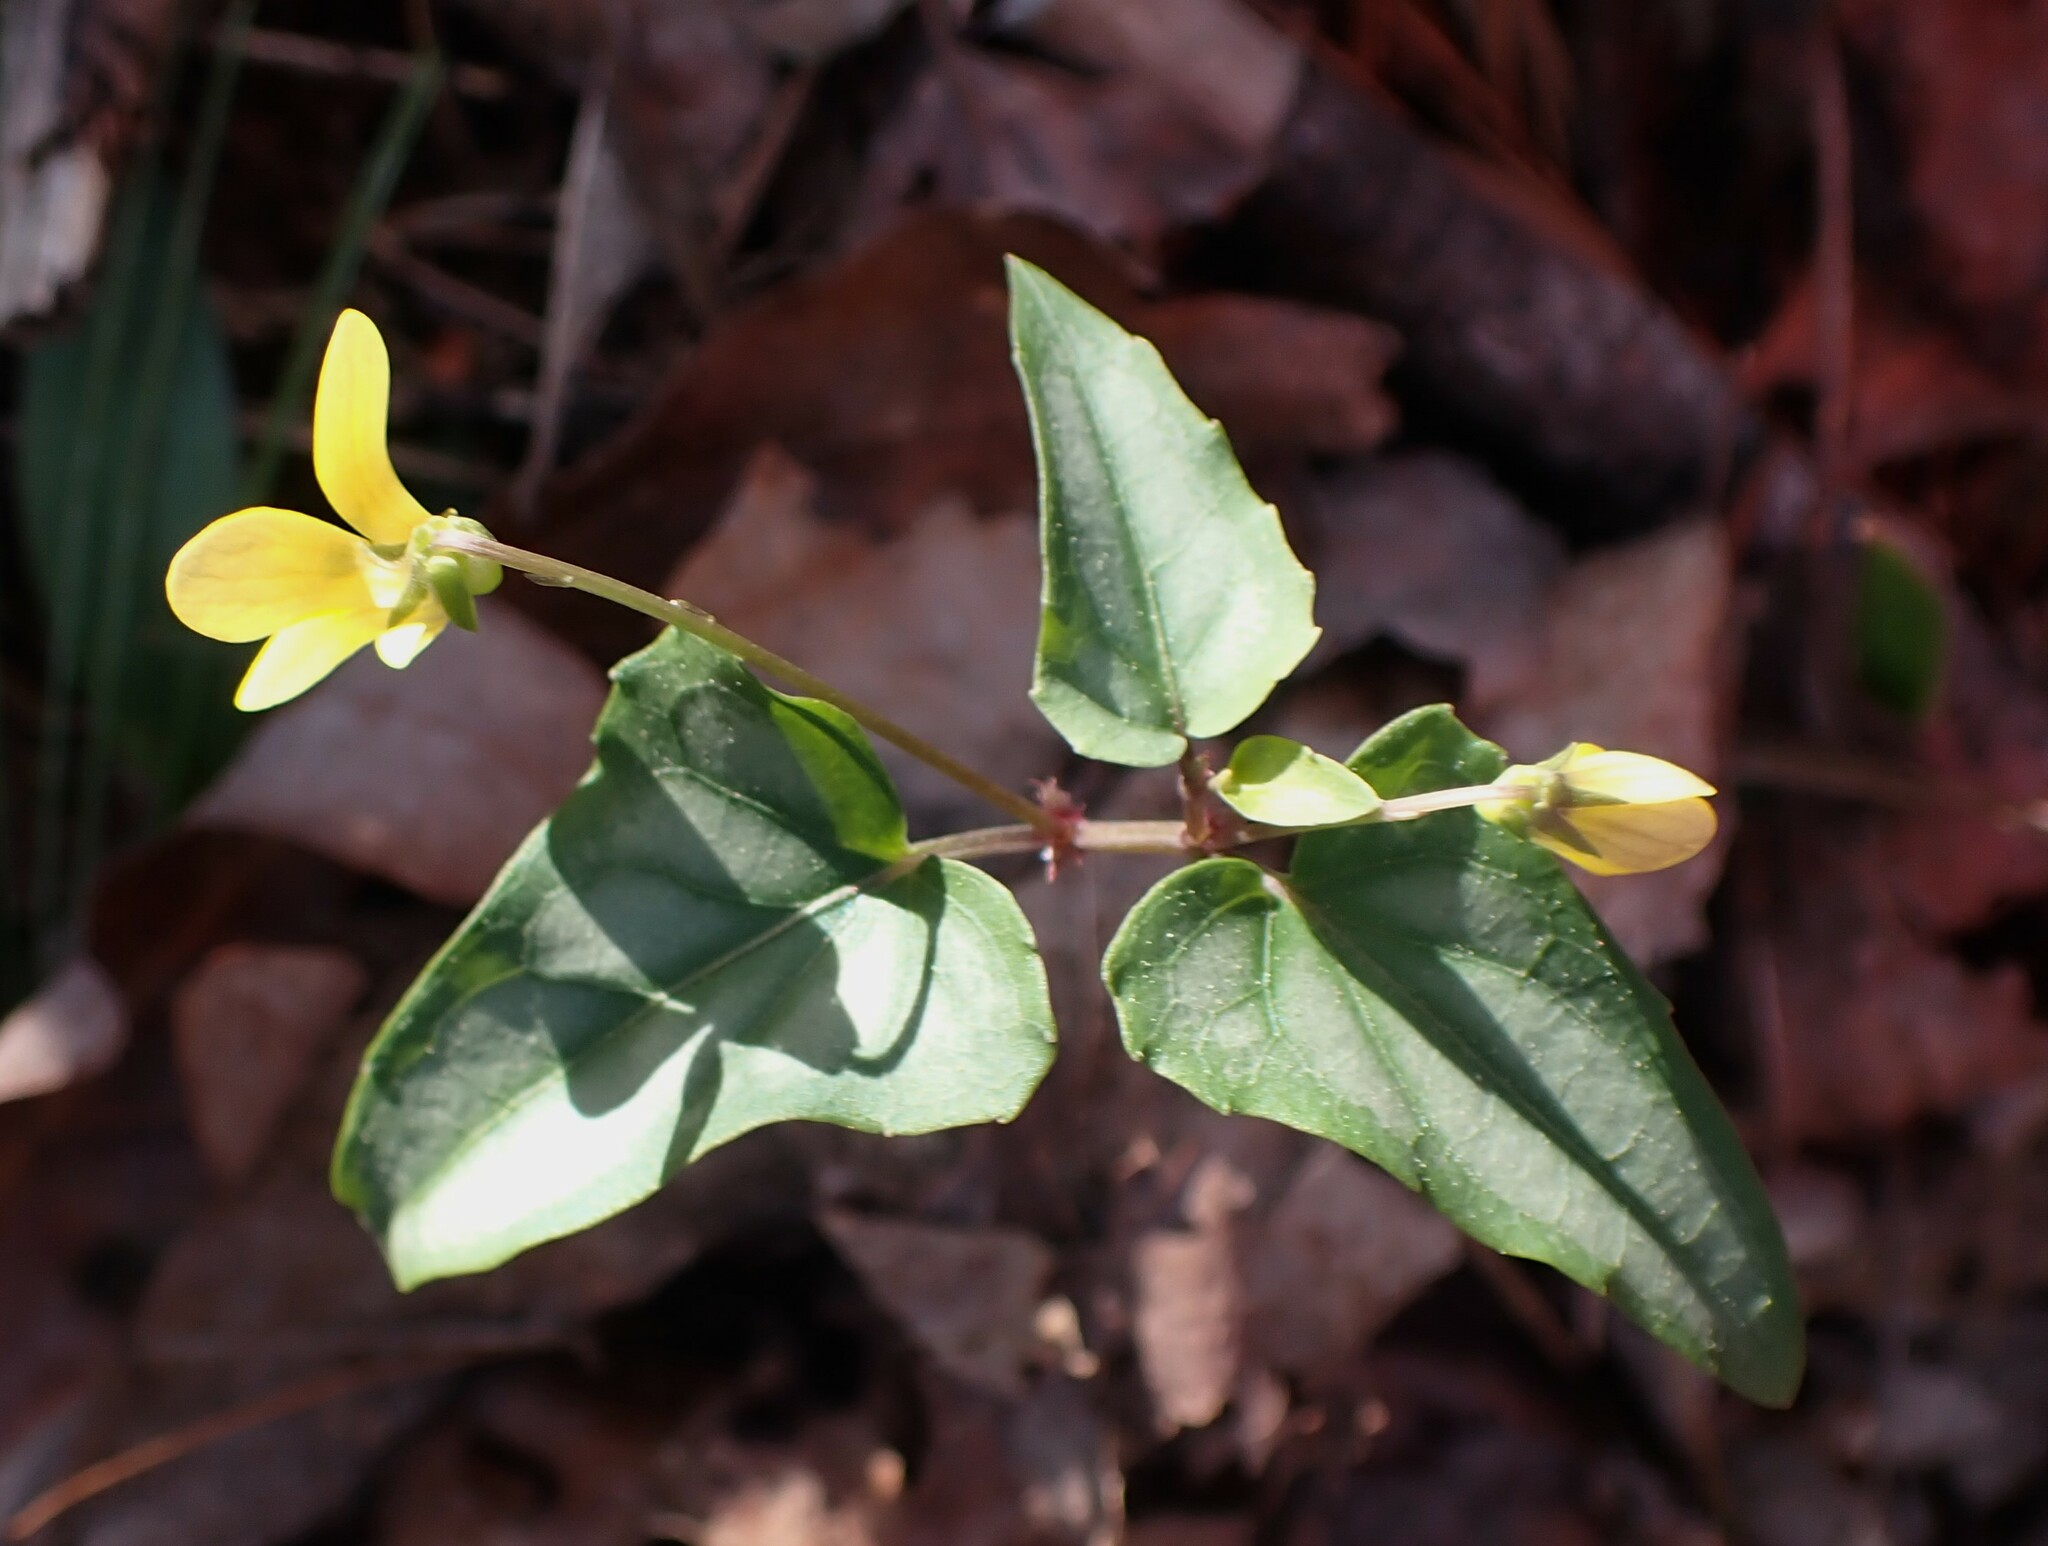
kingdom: Plantae
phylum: Tracheophyta
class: Magnoliopsida
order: Malpighiales
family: Violaceae
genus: Viola
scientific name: Viola hastata
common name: Spear-leaf violet
